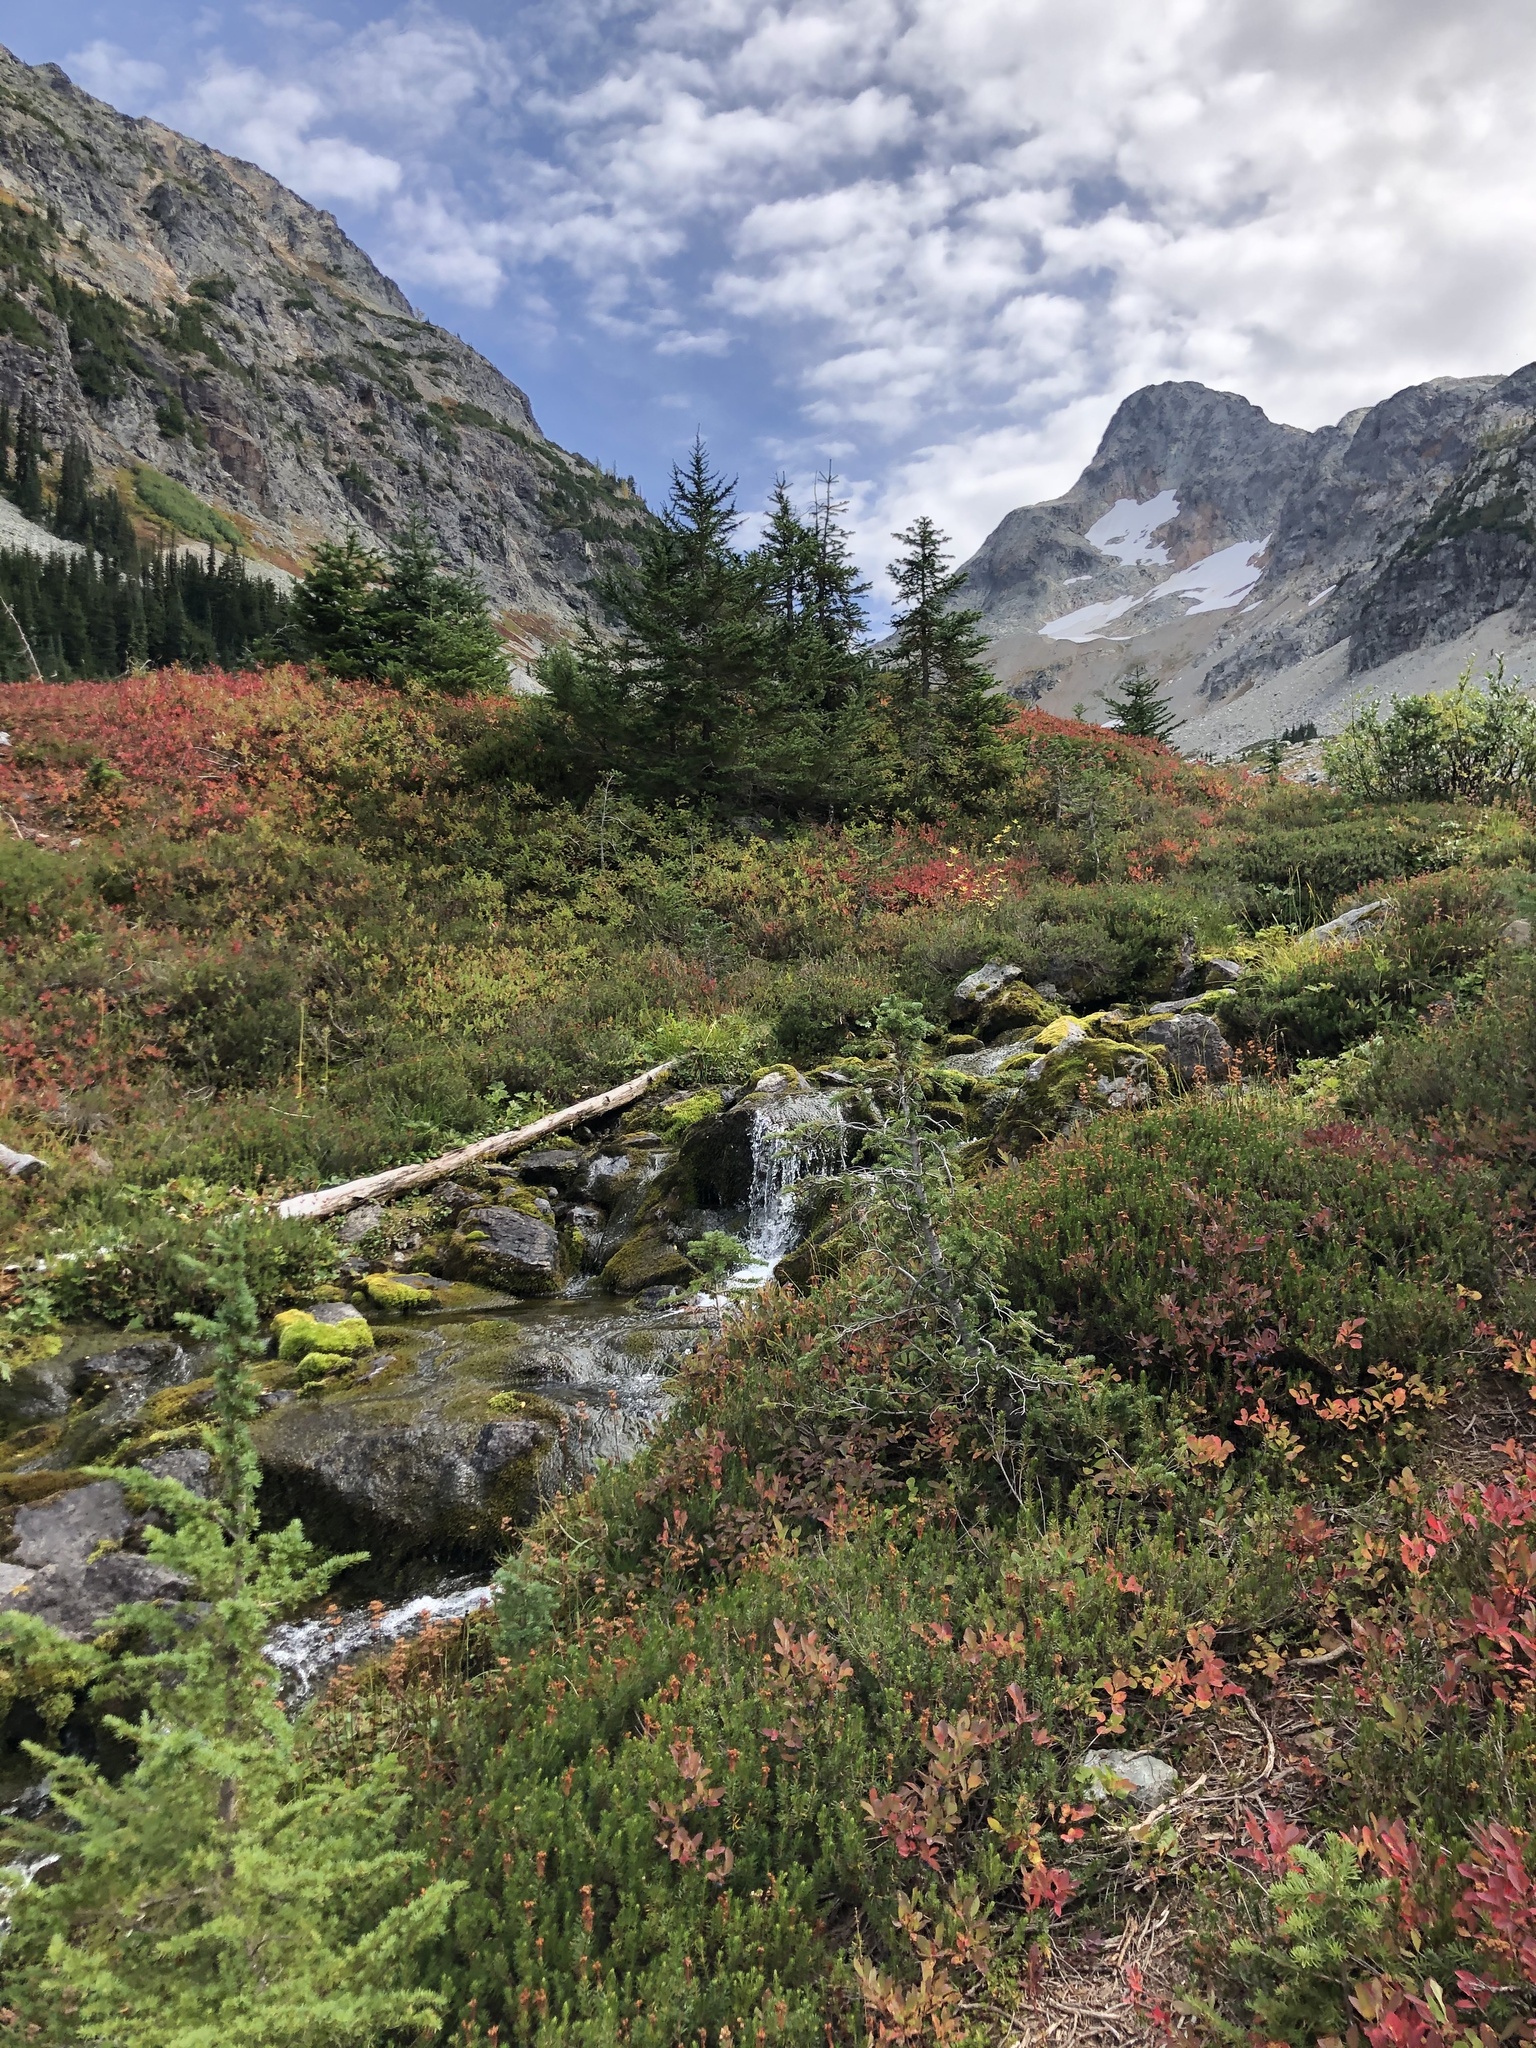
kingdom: Plantae
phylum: Tracheophyta
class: Pinopsida
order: Pinales
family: Pinaceae
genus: Tsuga
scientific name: Tsuga mertensiana
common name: Mountain hemlock
